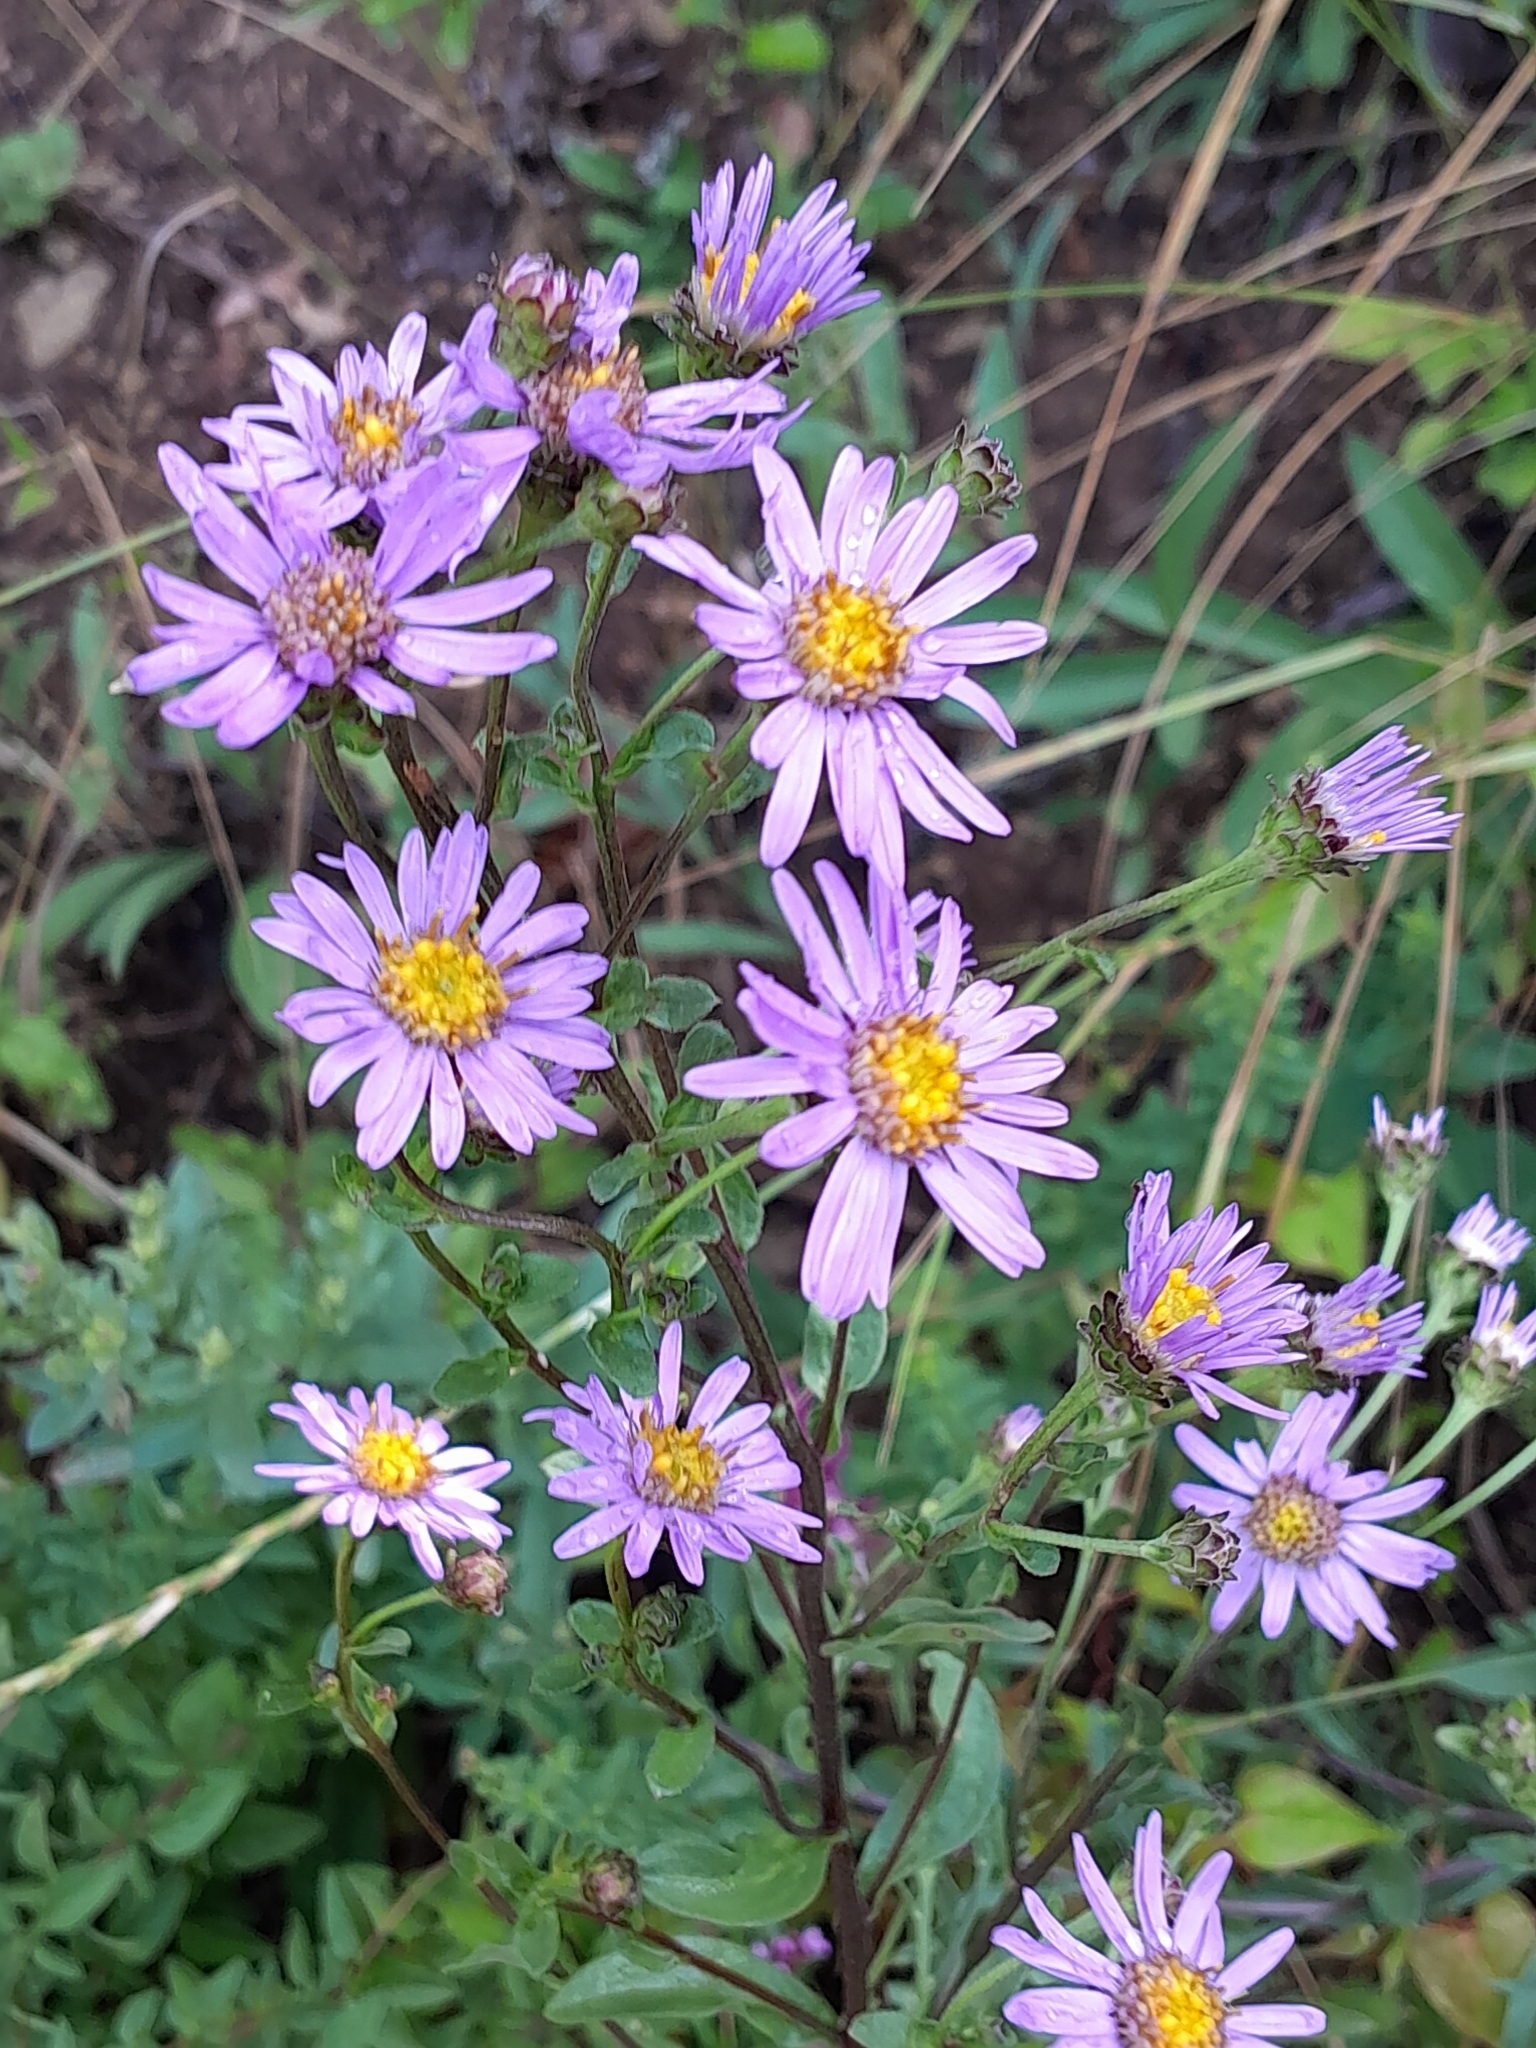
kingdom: Plantae
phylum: Tracheophyta
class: Magnoliopsida
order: Asterales
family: Asteraceae
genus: Aster
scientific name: Aster amellus
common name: European michaelmas daisy
